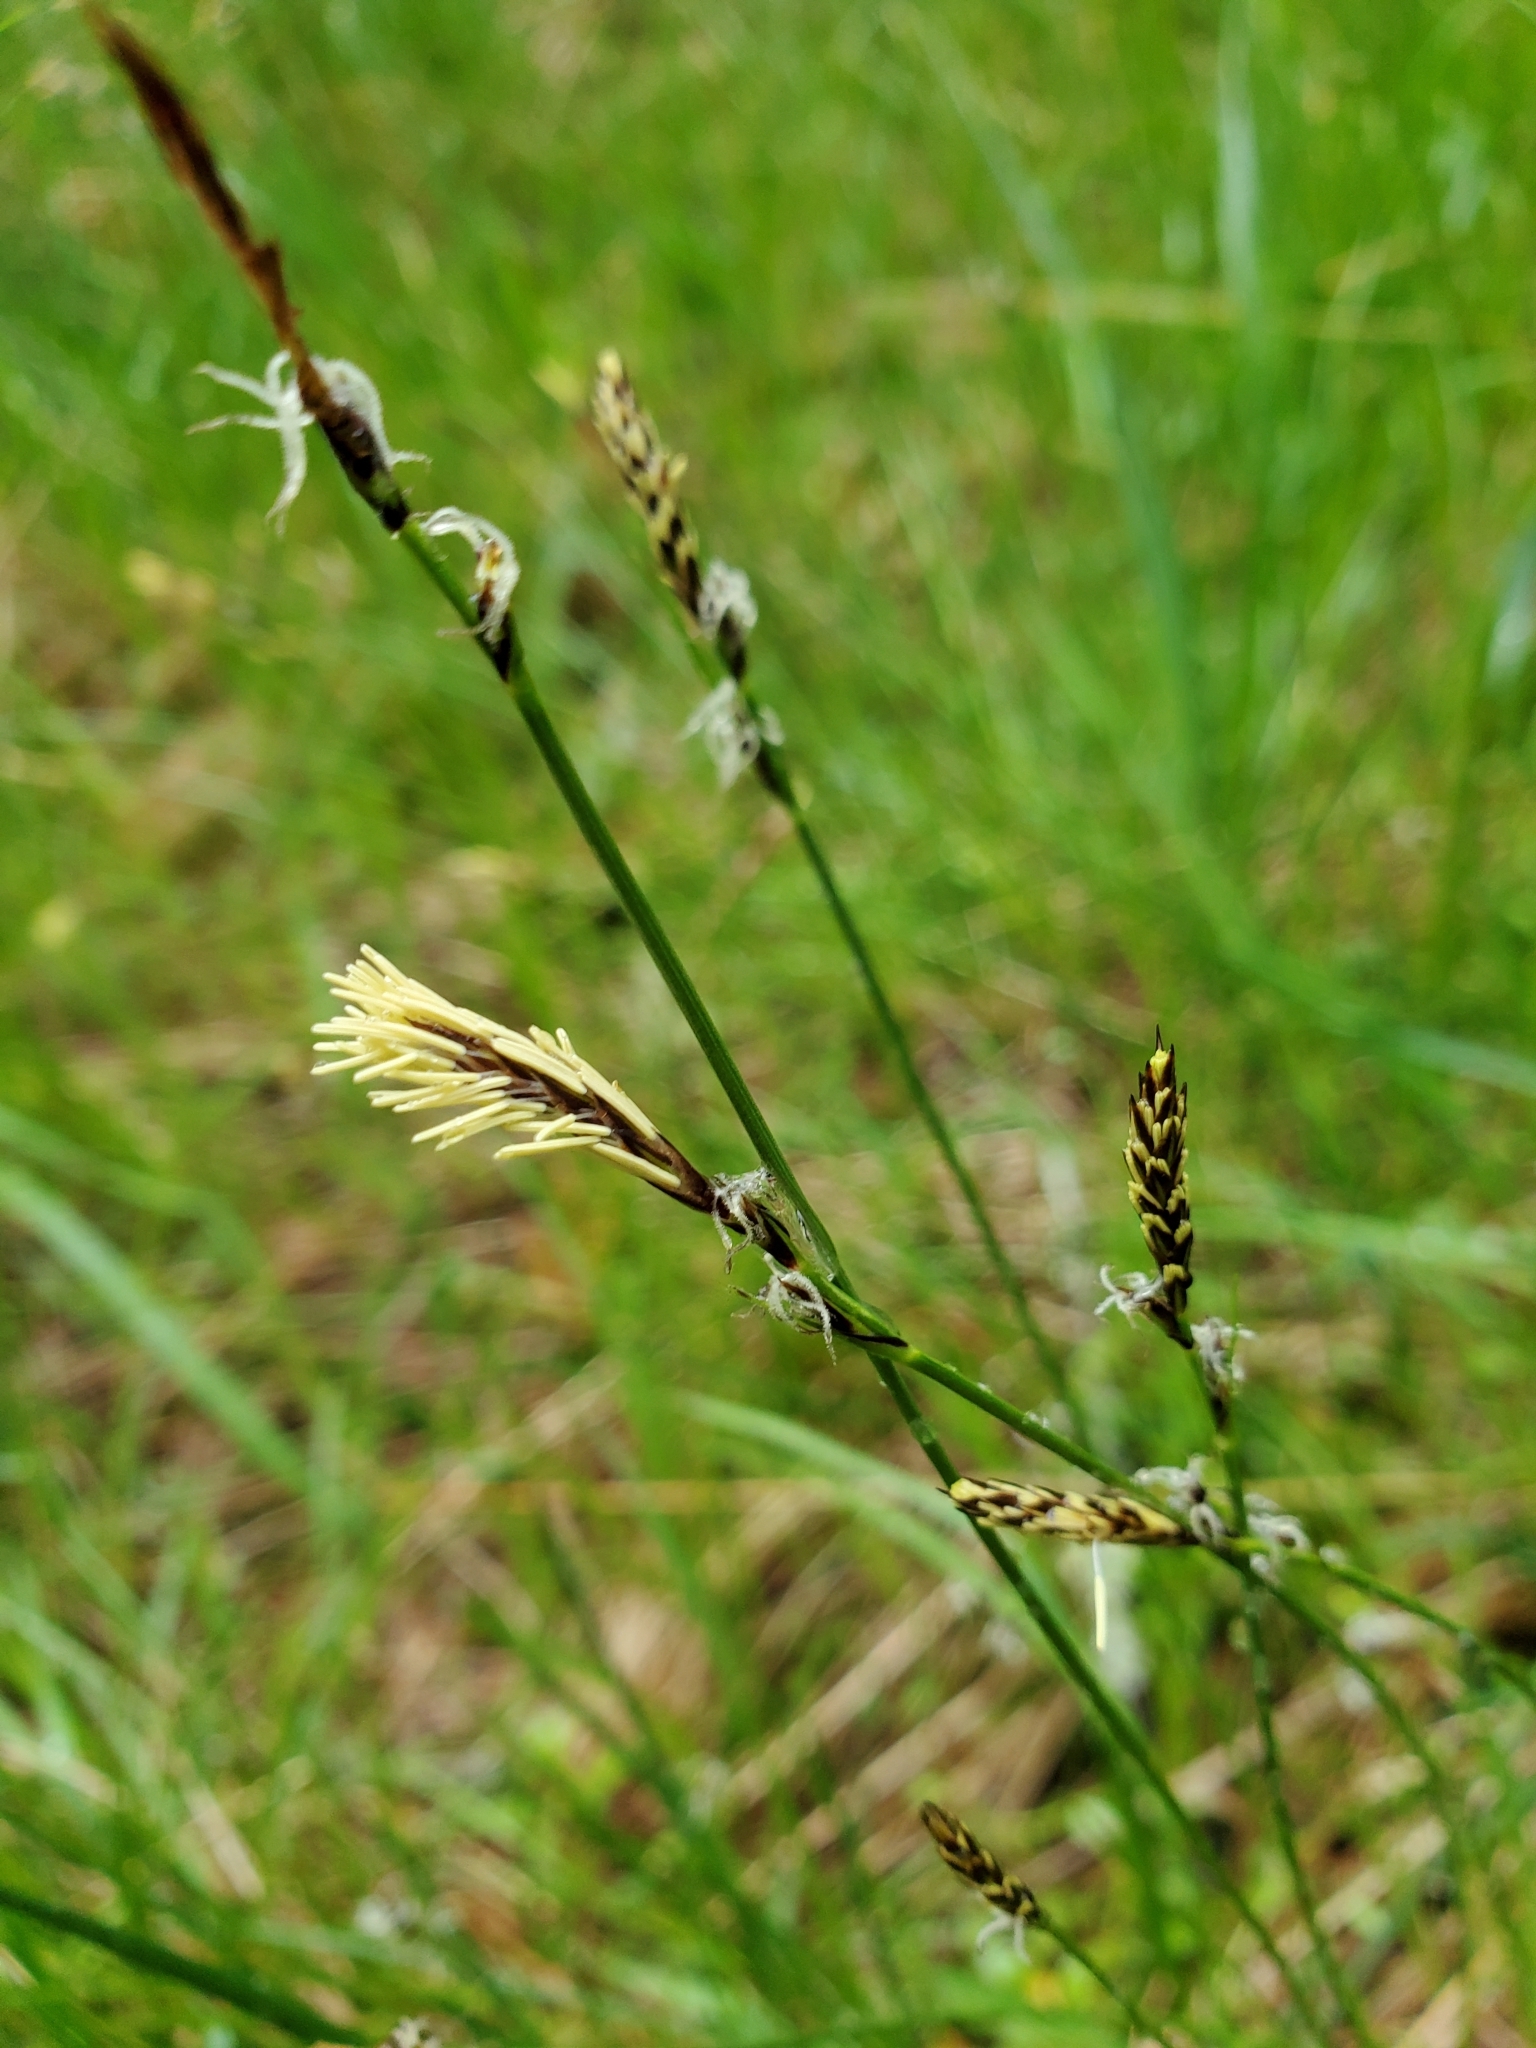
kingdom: Plantae
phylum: Tracheophyta
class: Liliopsida
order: Poales
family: Cyperaceae
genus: Carex
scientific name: Carex inops
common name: Long-stolon sedge
